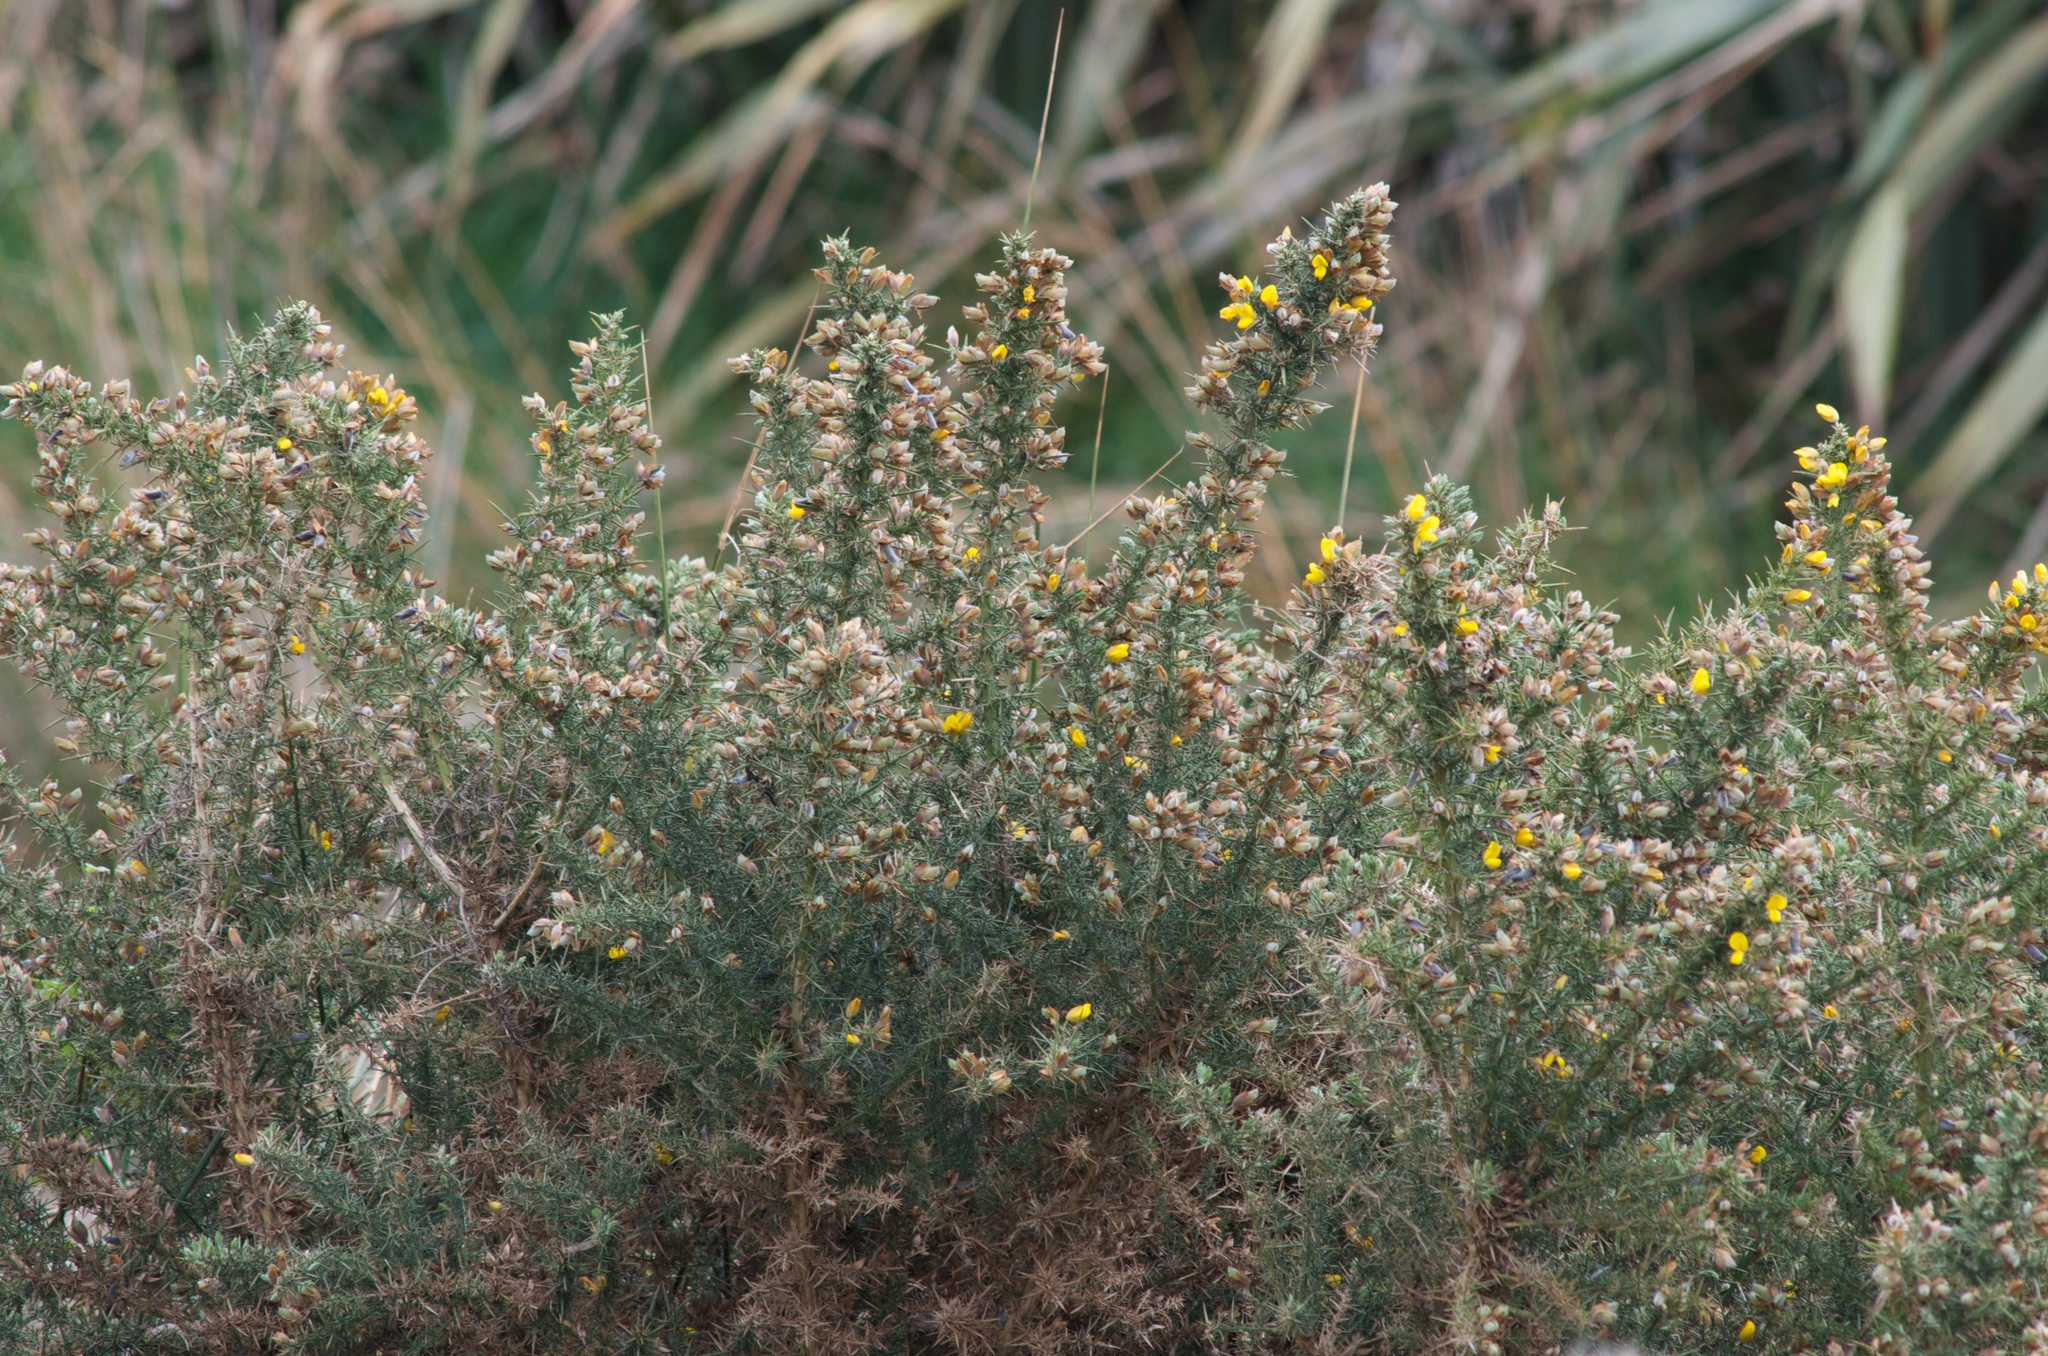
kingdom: Plantae
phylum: Tracheophyta
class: Magnoliopsida
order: Fabales
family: Fabaceae
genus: Ulex
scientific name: Ulex europaeus
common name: Common gorse
